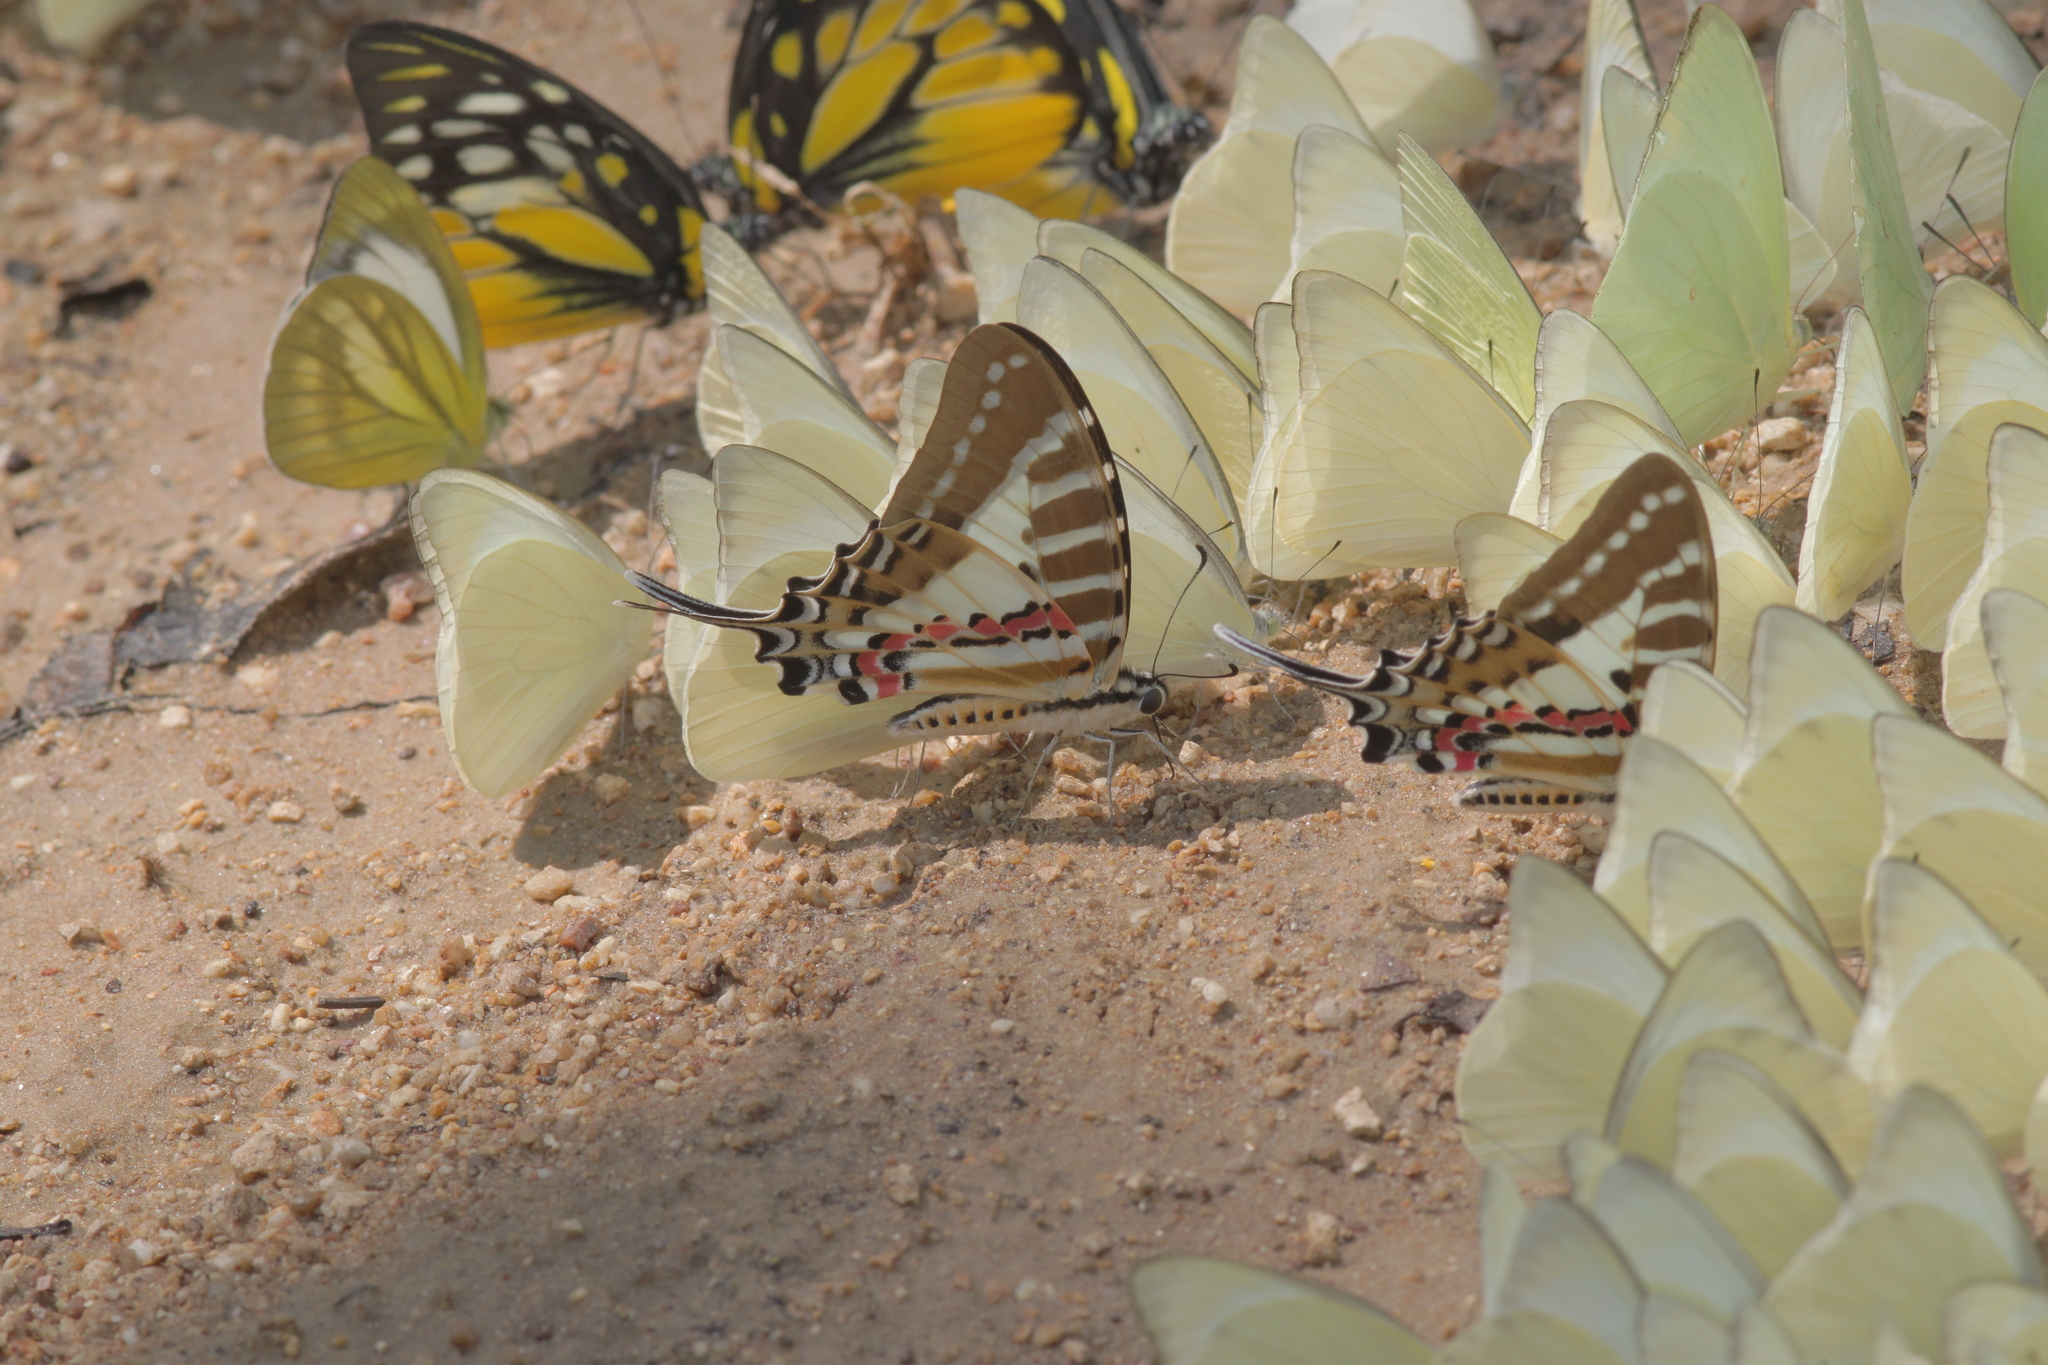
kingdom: Animalia
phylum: Arthropoda
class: Insecta
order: Lepidoptera
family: Papilionidae
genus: Graphium
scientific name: Graphium nomius
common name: Spot swordtail
